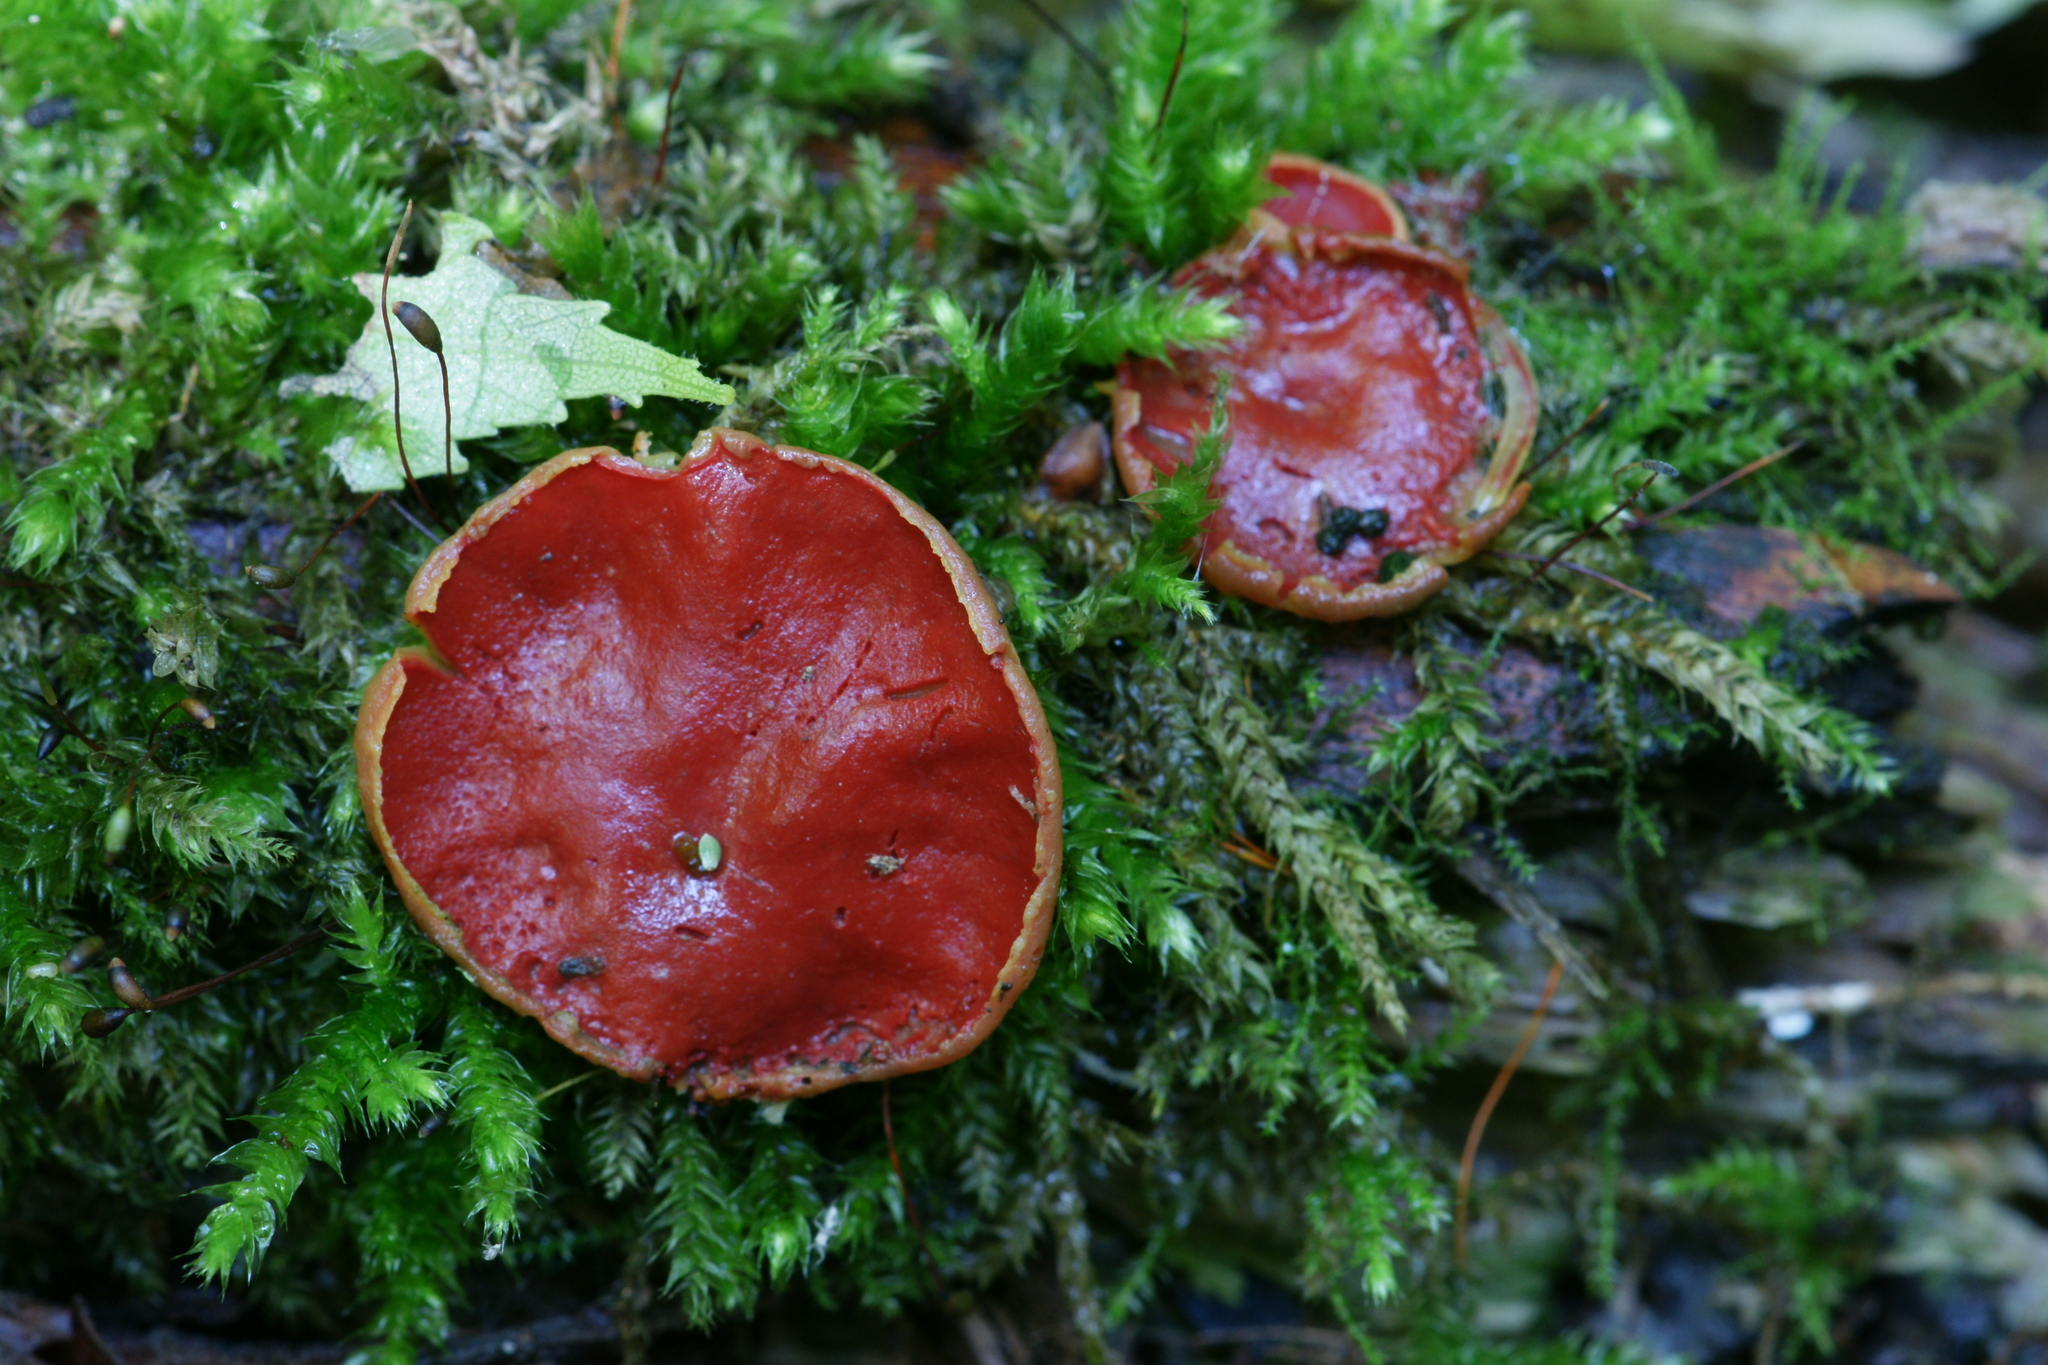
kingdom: Fungi
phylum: Ascomycota
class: Pezizomycetes
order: Pezizales
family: Sarcoscyphaceae
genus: Sarcoscypha
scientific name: Sarcoscypha
